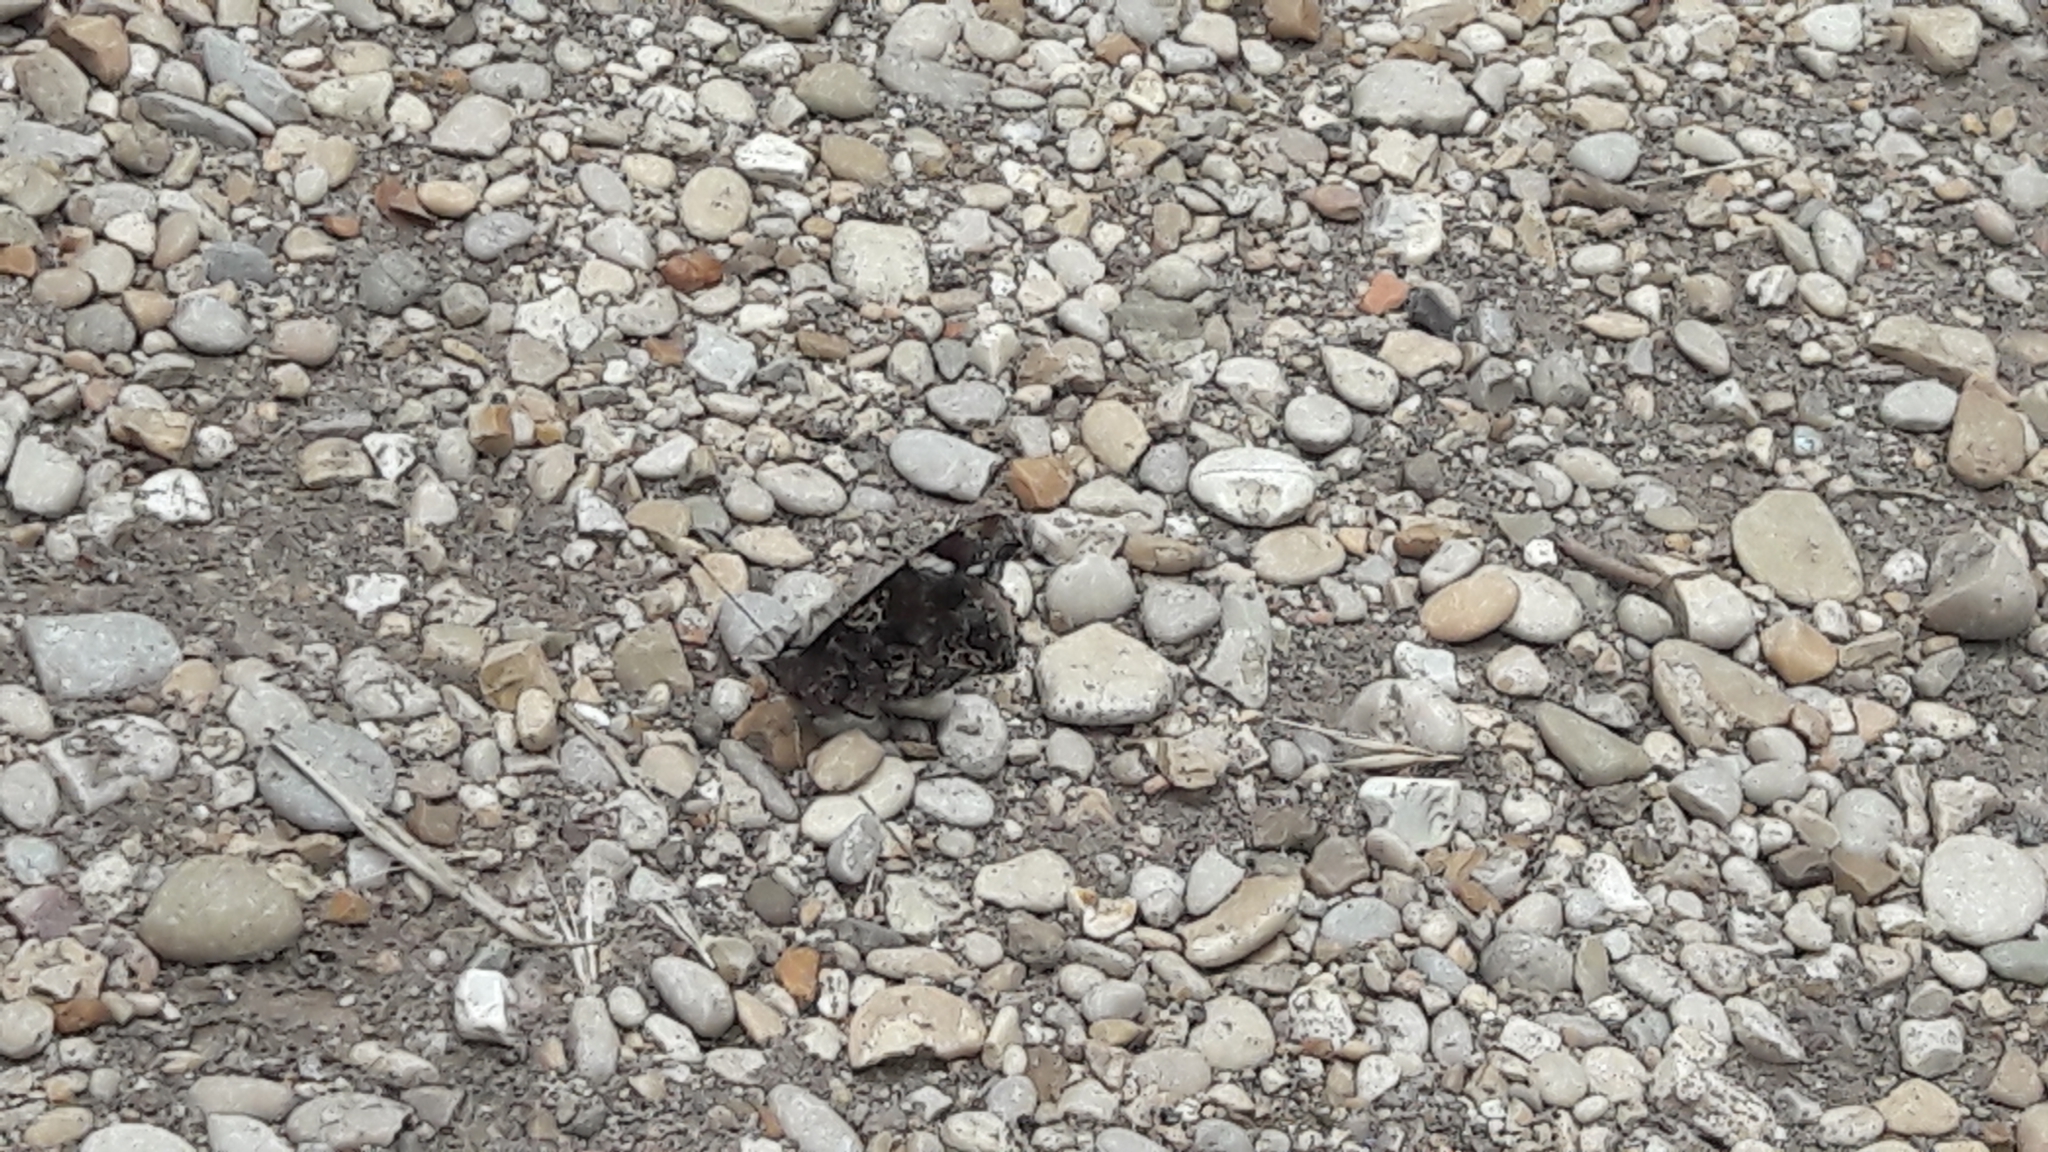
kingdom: Animalia
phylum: Arthropoda
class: Insecta
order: Lepidoptera
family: Nymphalidae
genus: Vanessa
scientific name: Vanessa atalanta
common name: Red admiral
